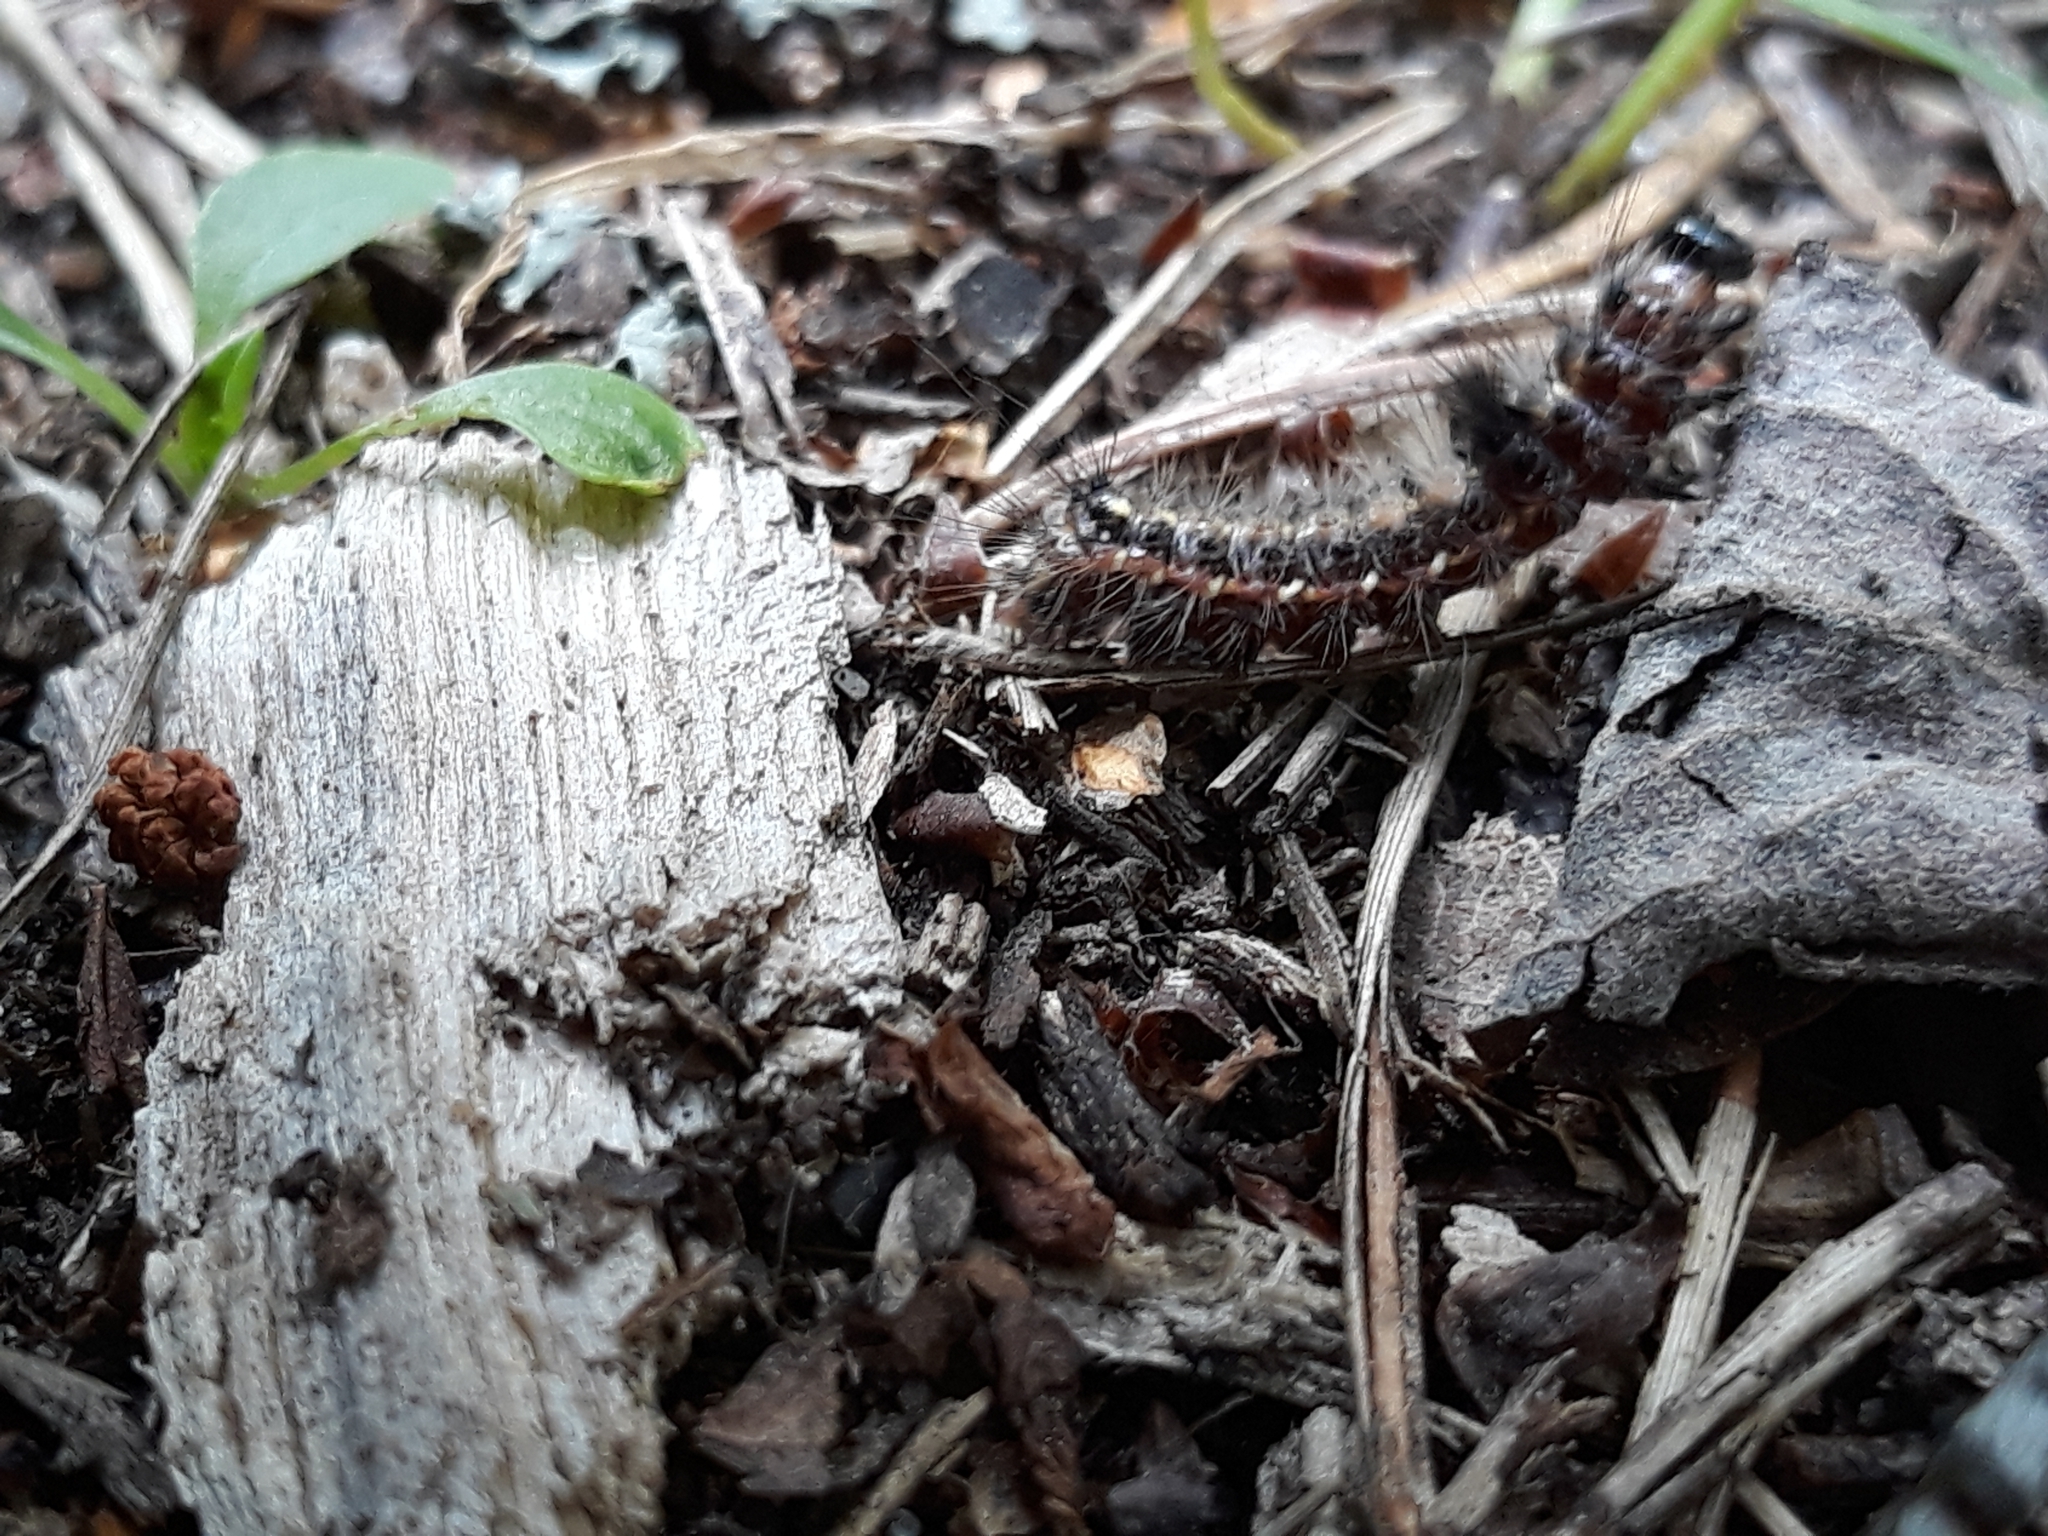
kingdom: Animalia
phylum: Arthropoda
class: Insecta
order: Lepidoptera
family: Noctuidae
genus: Acronicta
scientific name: Acronicta rumicis
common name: Knot grass
